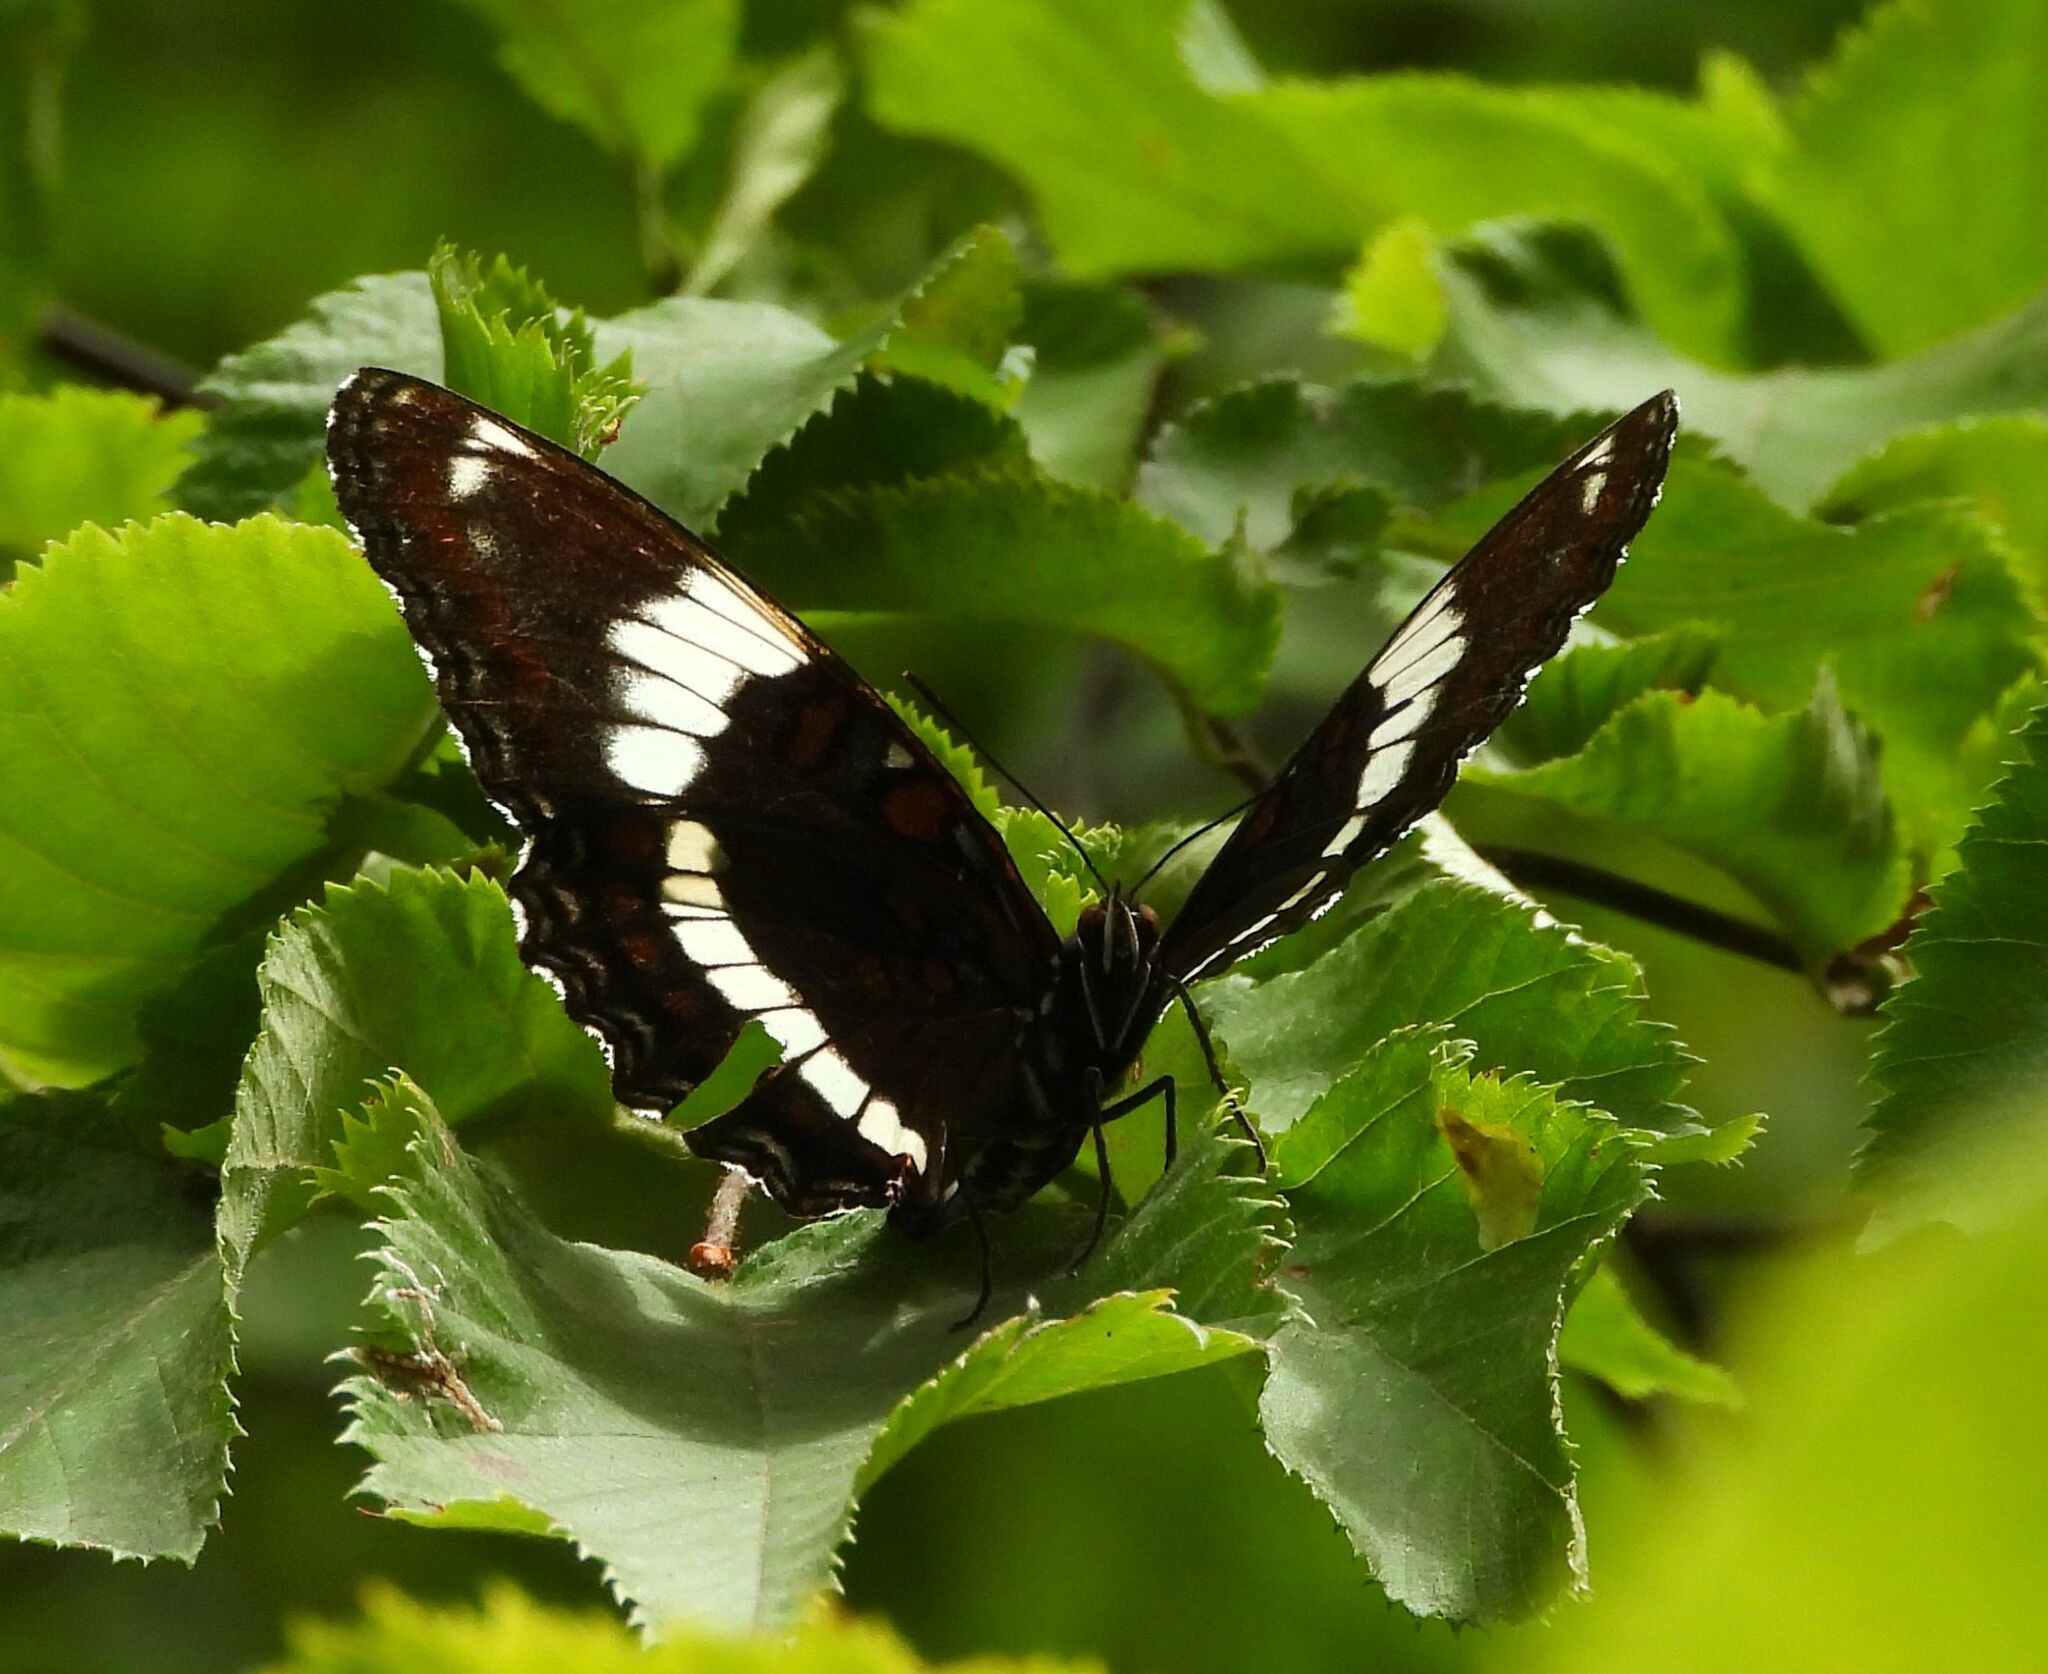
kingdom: Animalia
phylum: Arthropoda
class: Insecta
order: Lepidoptera
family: Nymphalidae
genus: Limenitis
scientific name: Limenitis arthemis
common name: Red-spotted admiral
